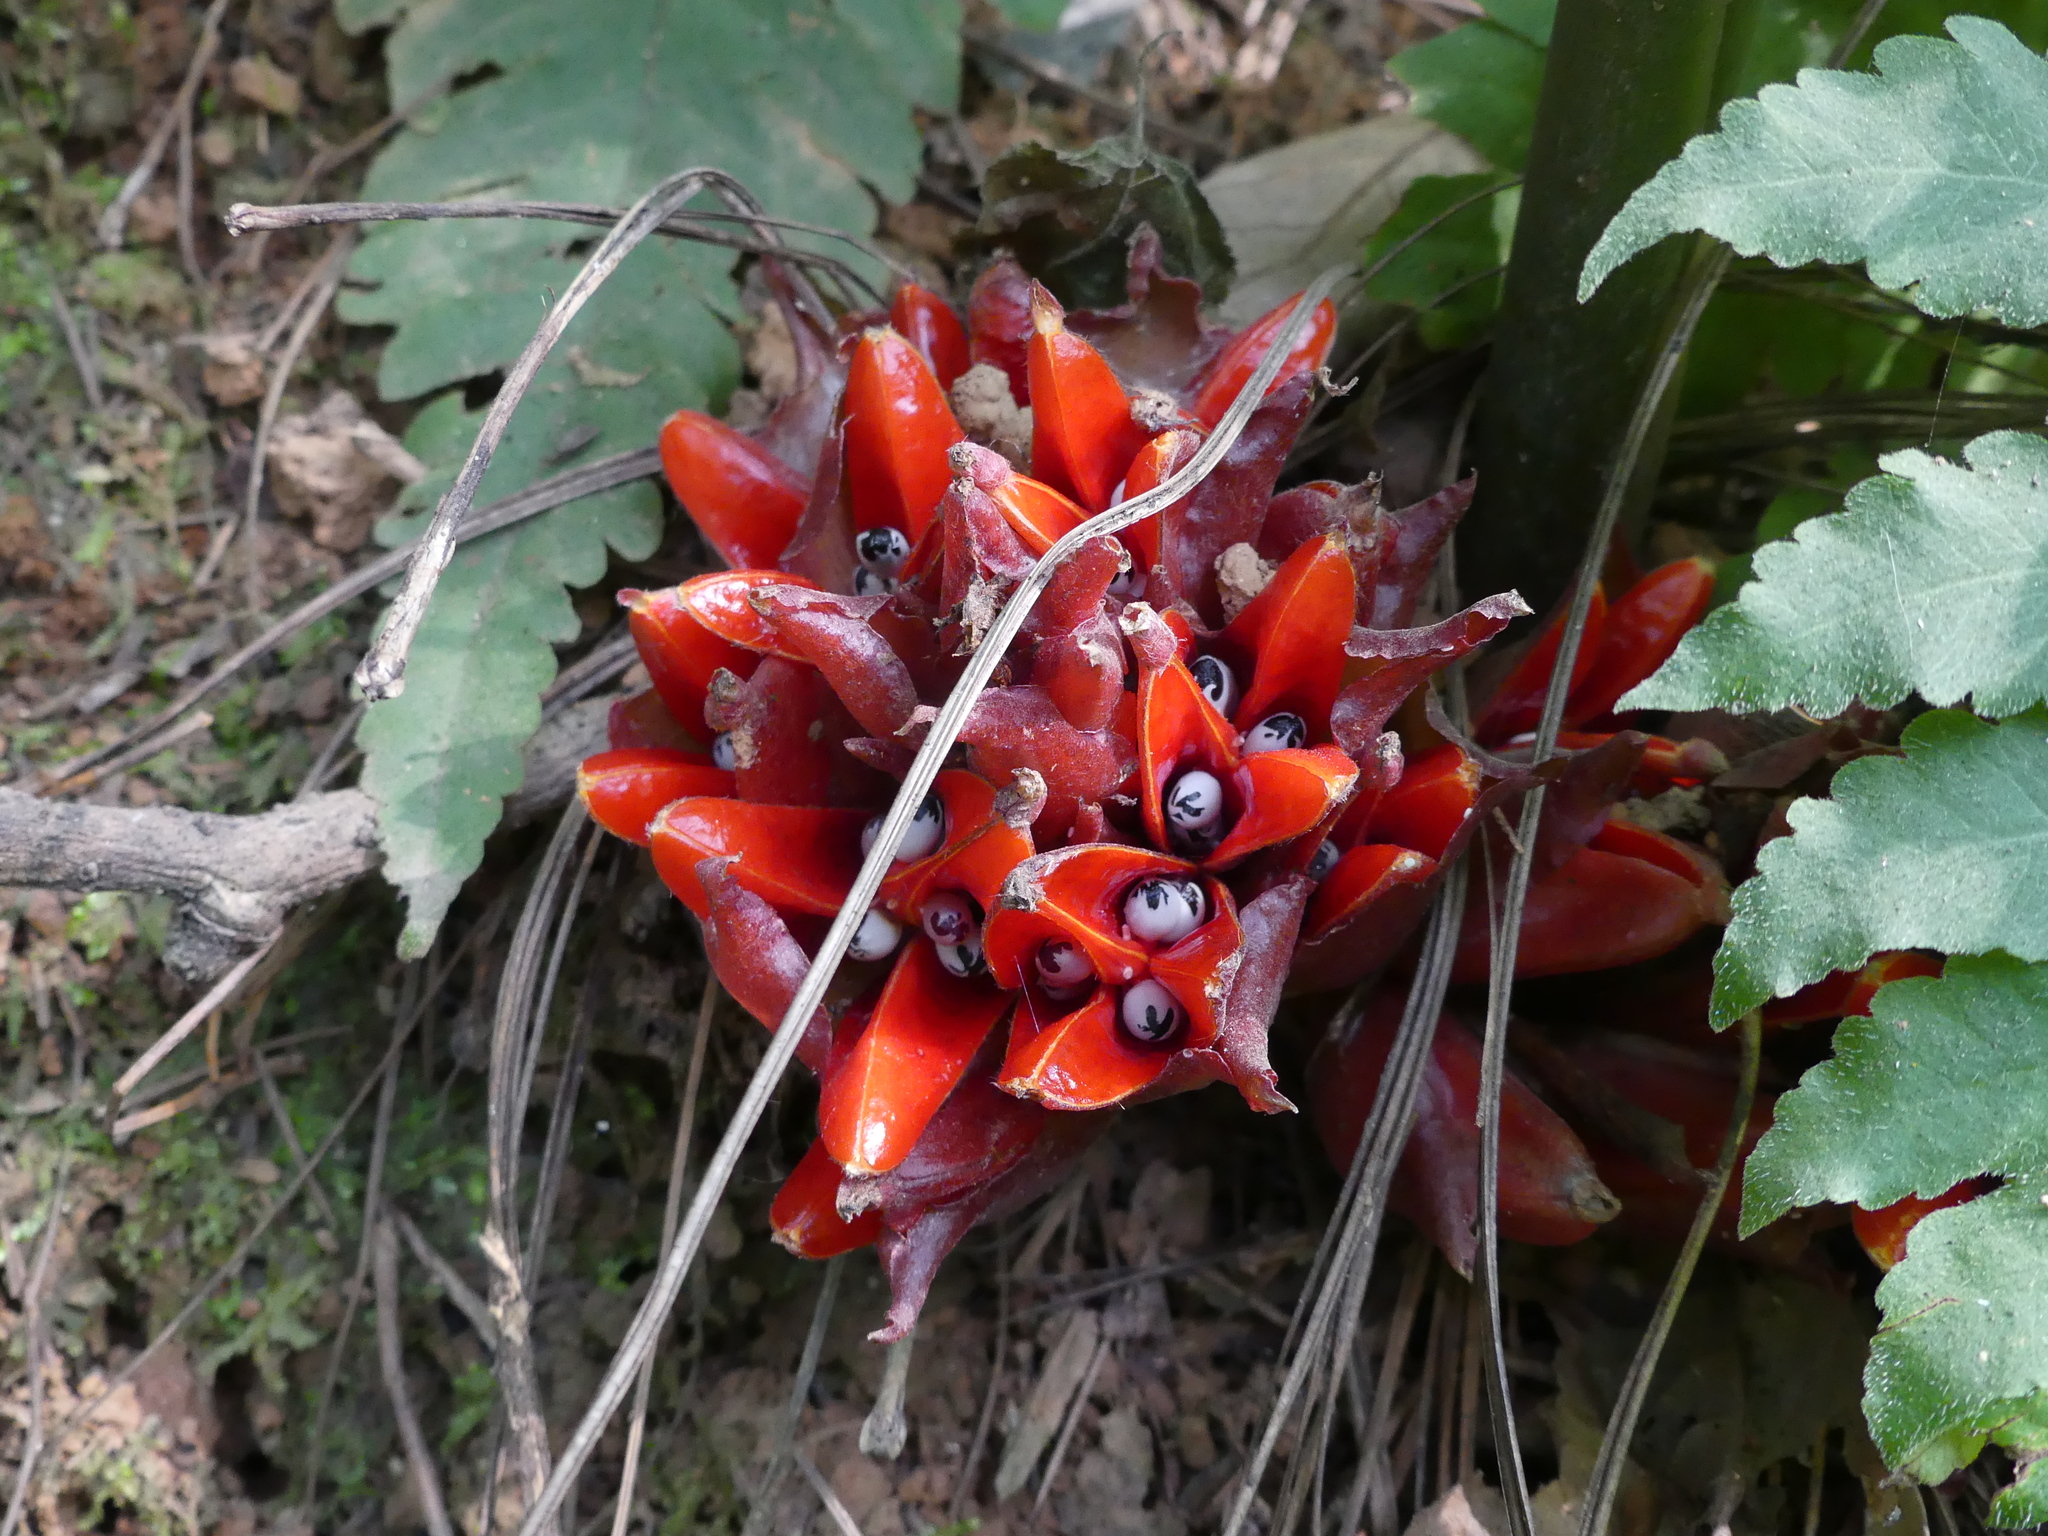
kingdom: Plantae
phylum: Tracheophyta
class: Liliopsida
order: Zingiberales
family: Zingiberaceae
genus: Zingiber
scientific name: Zingiber chrysanthum
